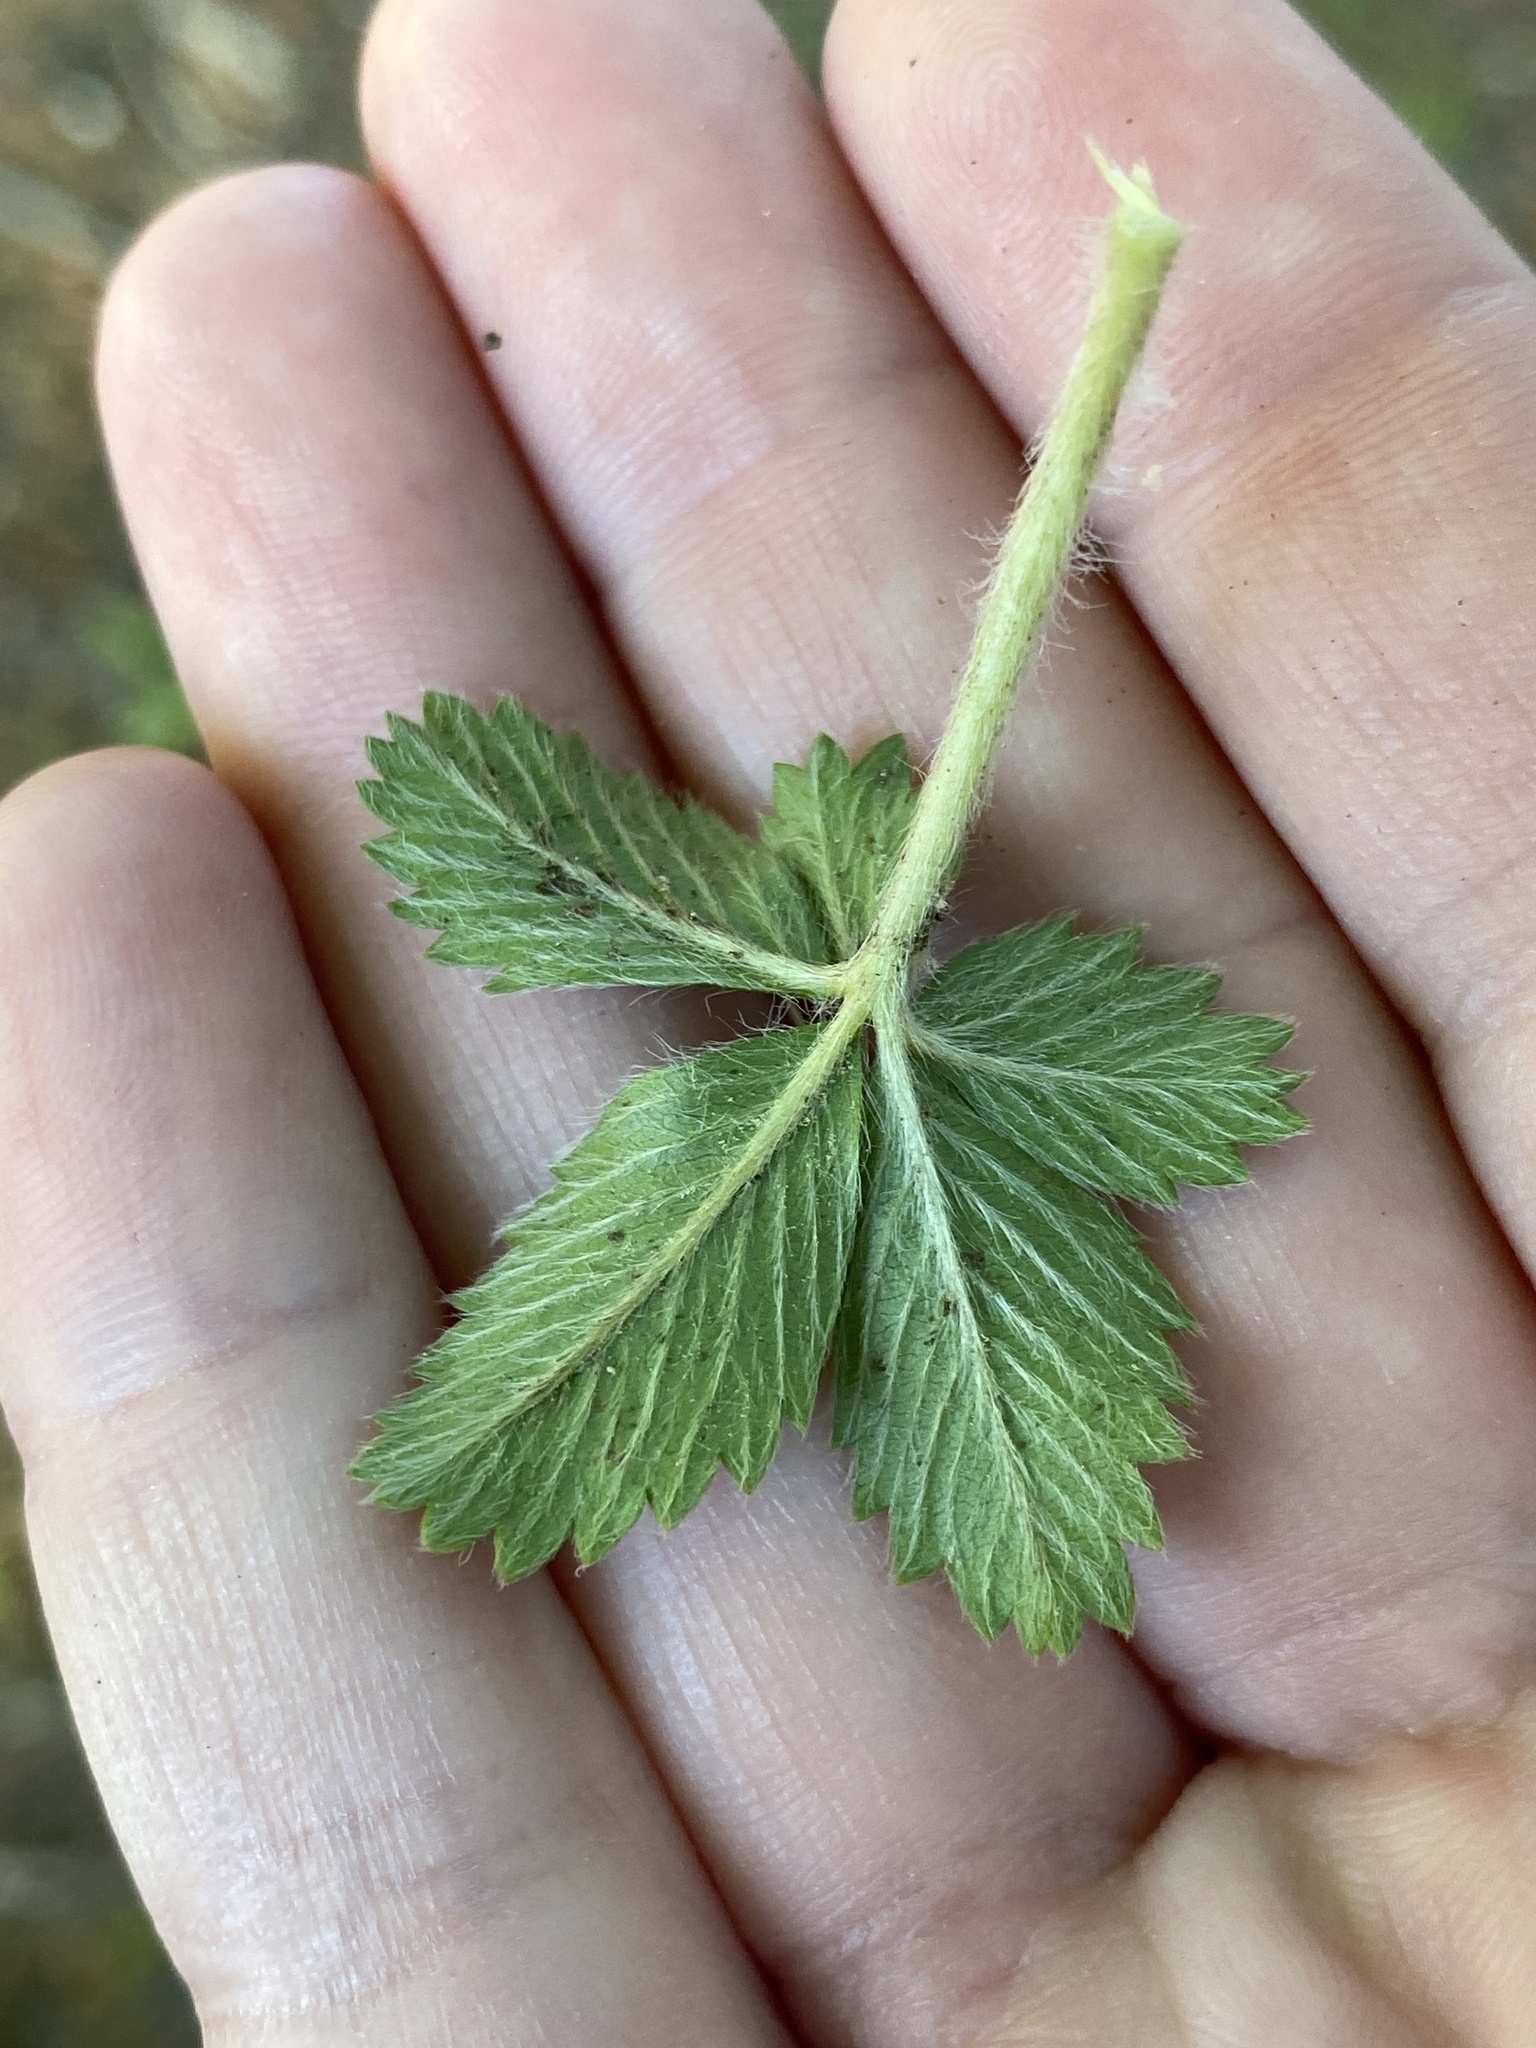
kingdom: Plantae
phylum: Tracheophyta
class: Magnoliopsida
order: Rosales
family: Rosaceae
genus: Potentilla
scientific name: Potentilla canadensis
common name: Canada cinquefoil
